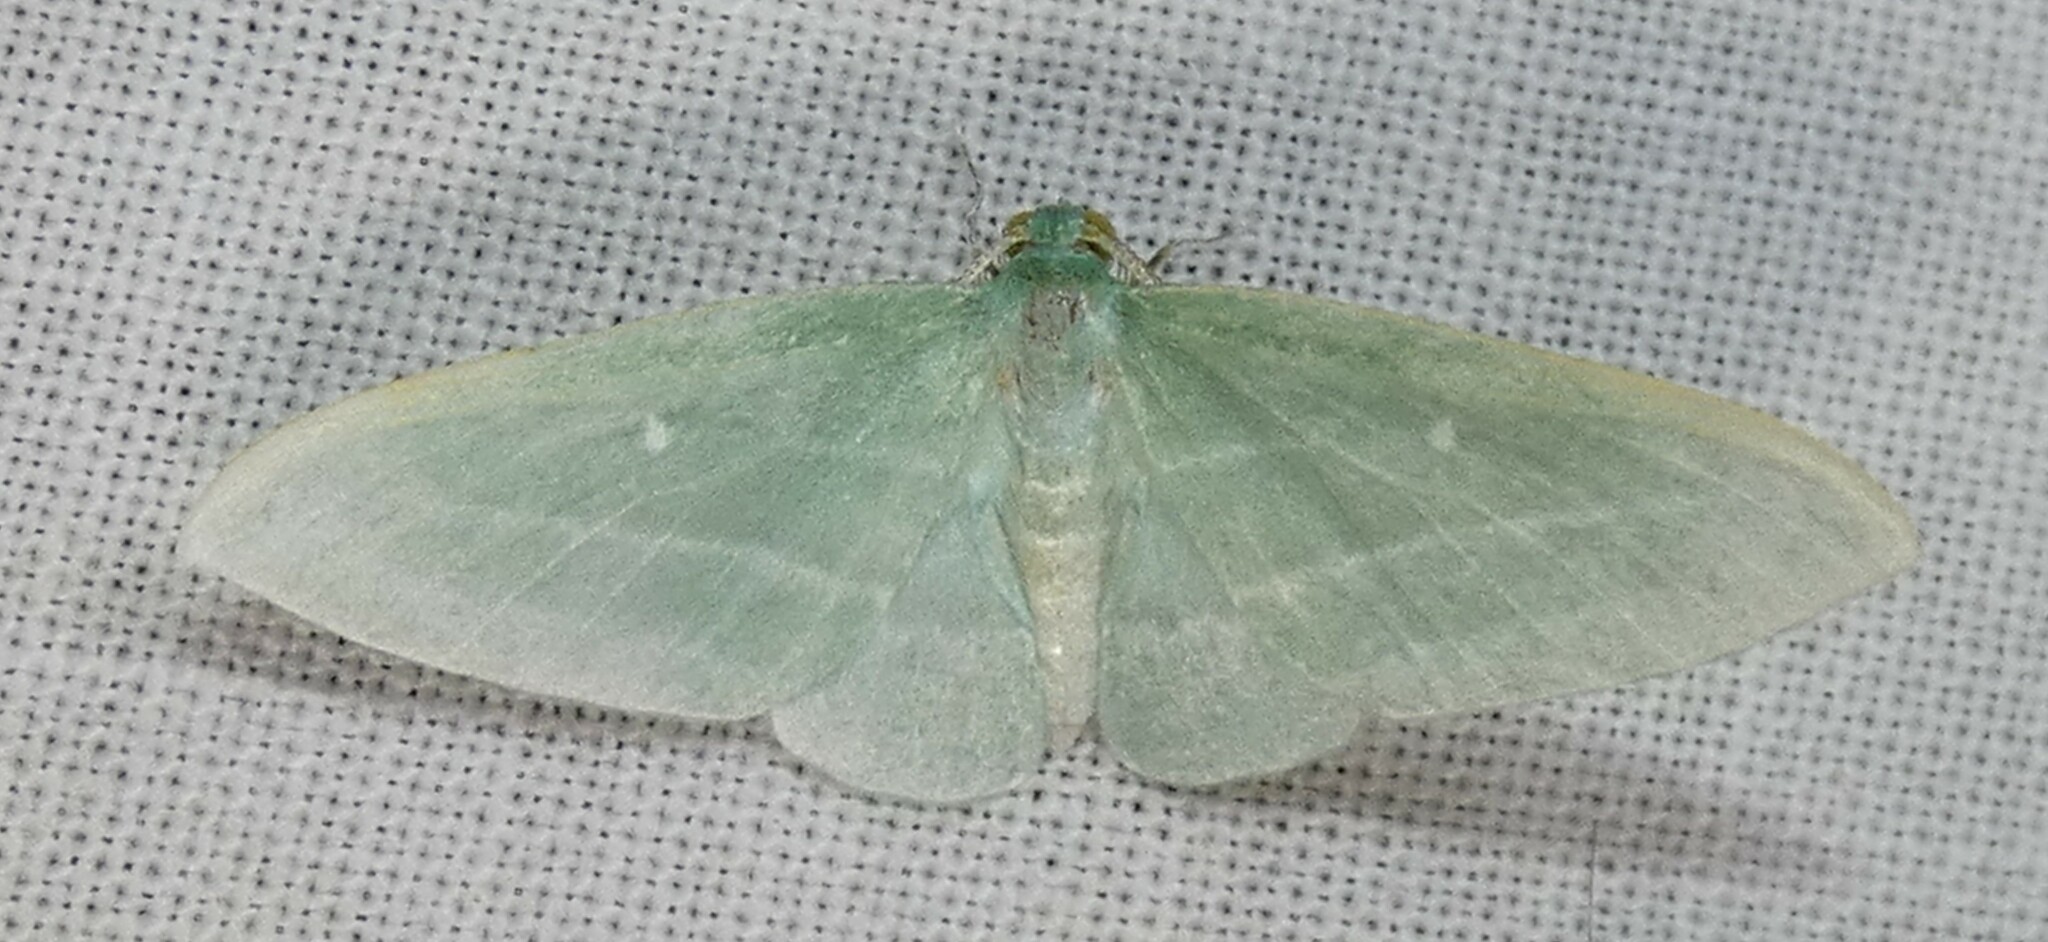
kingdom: Animalia
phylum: Arthropoda
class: Insecta
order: Lepidoptera
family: Geometridae
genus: Dyspteris
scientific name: Dyspteris abortivaria
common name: Bad-wing
